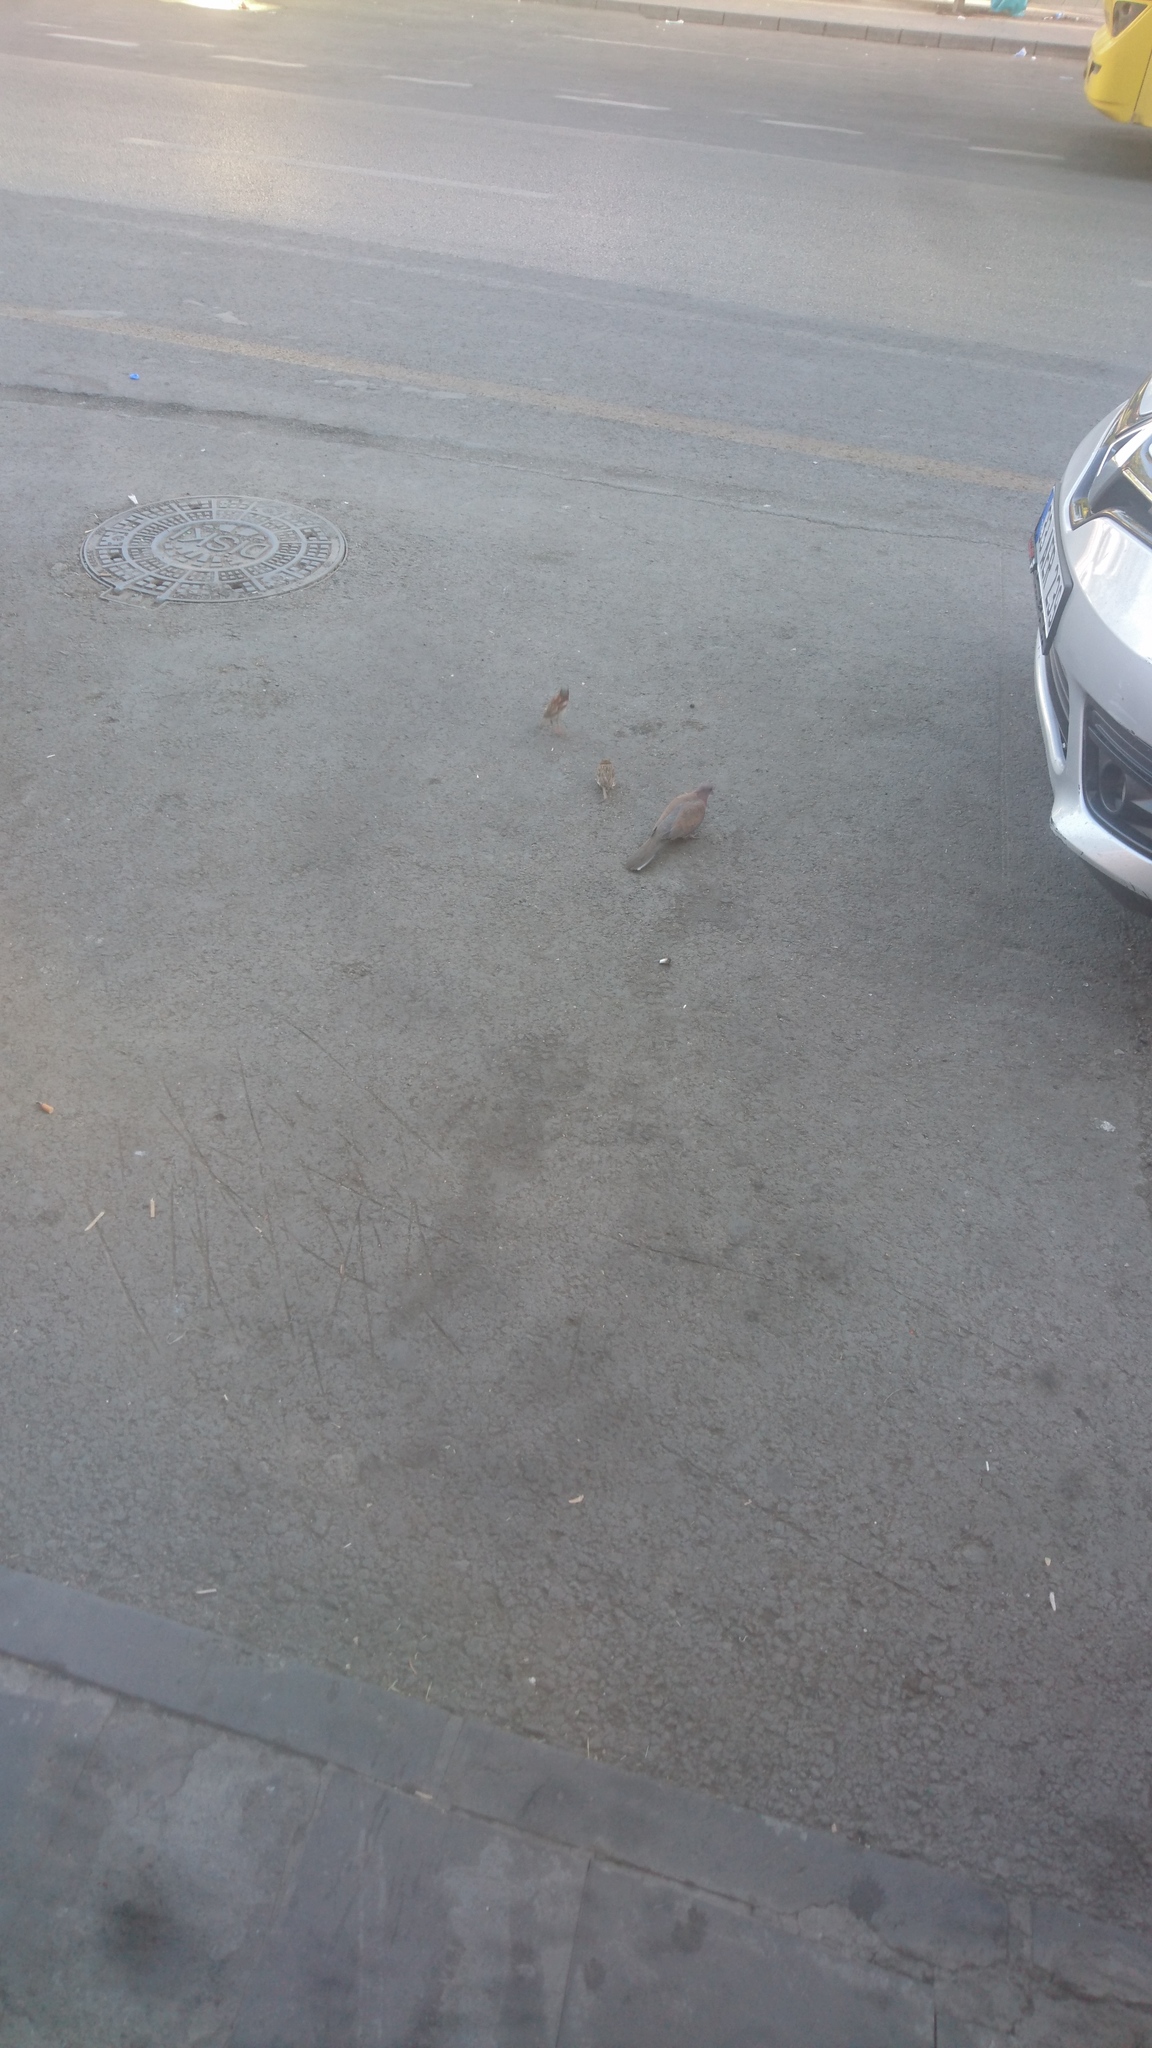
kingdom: Animalia
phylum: Chordata
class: Aves
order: Columbiformes
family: Columbidae
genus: Spilopelia
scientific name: Spilopelia senegalensis
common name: Laughing dove
